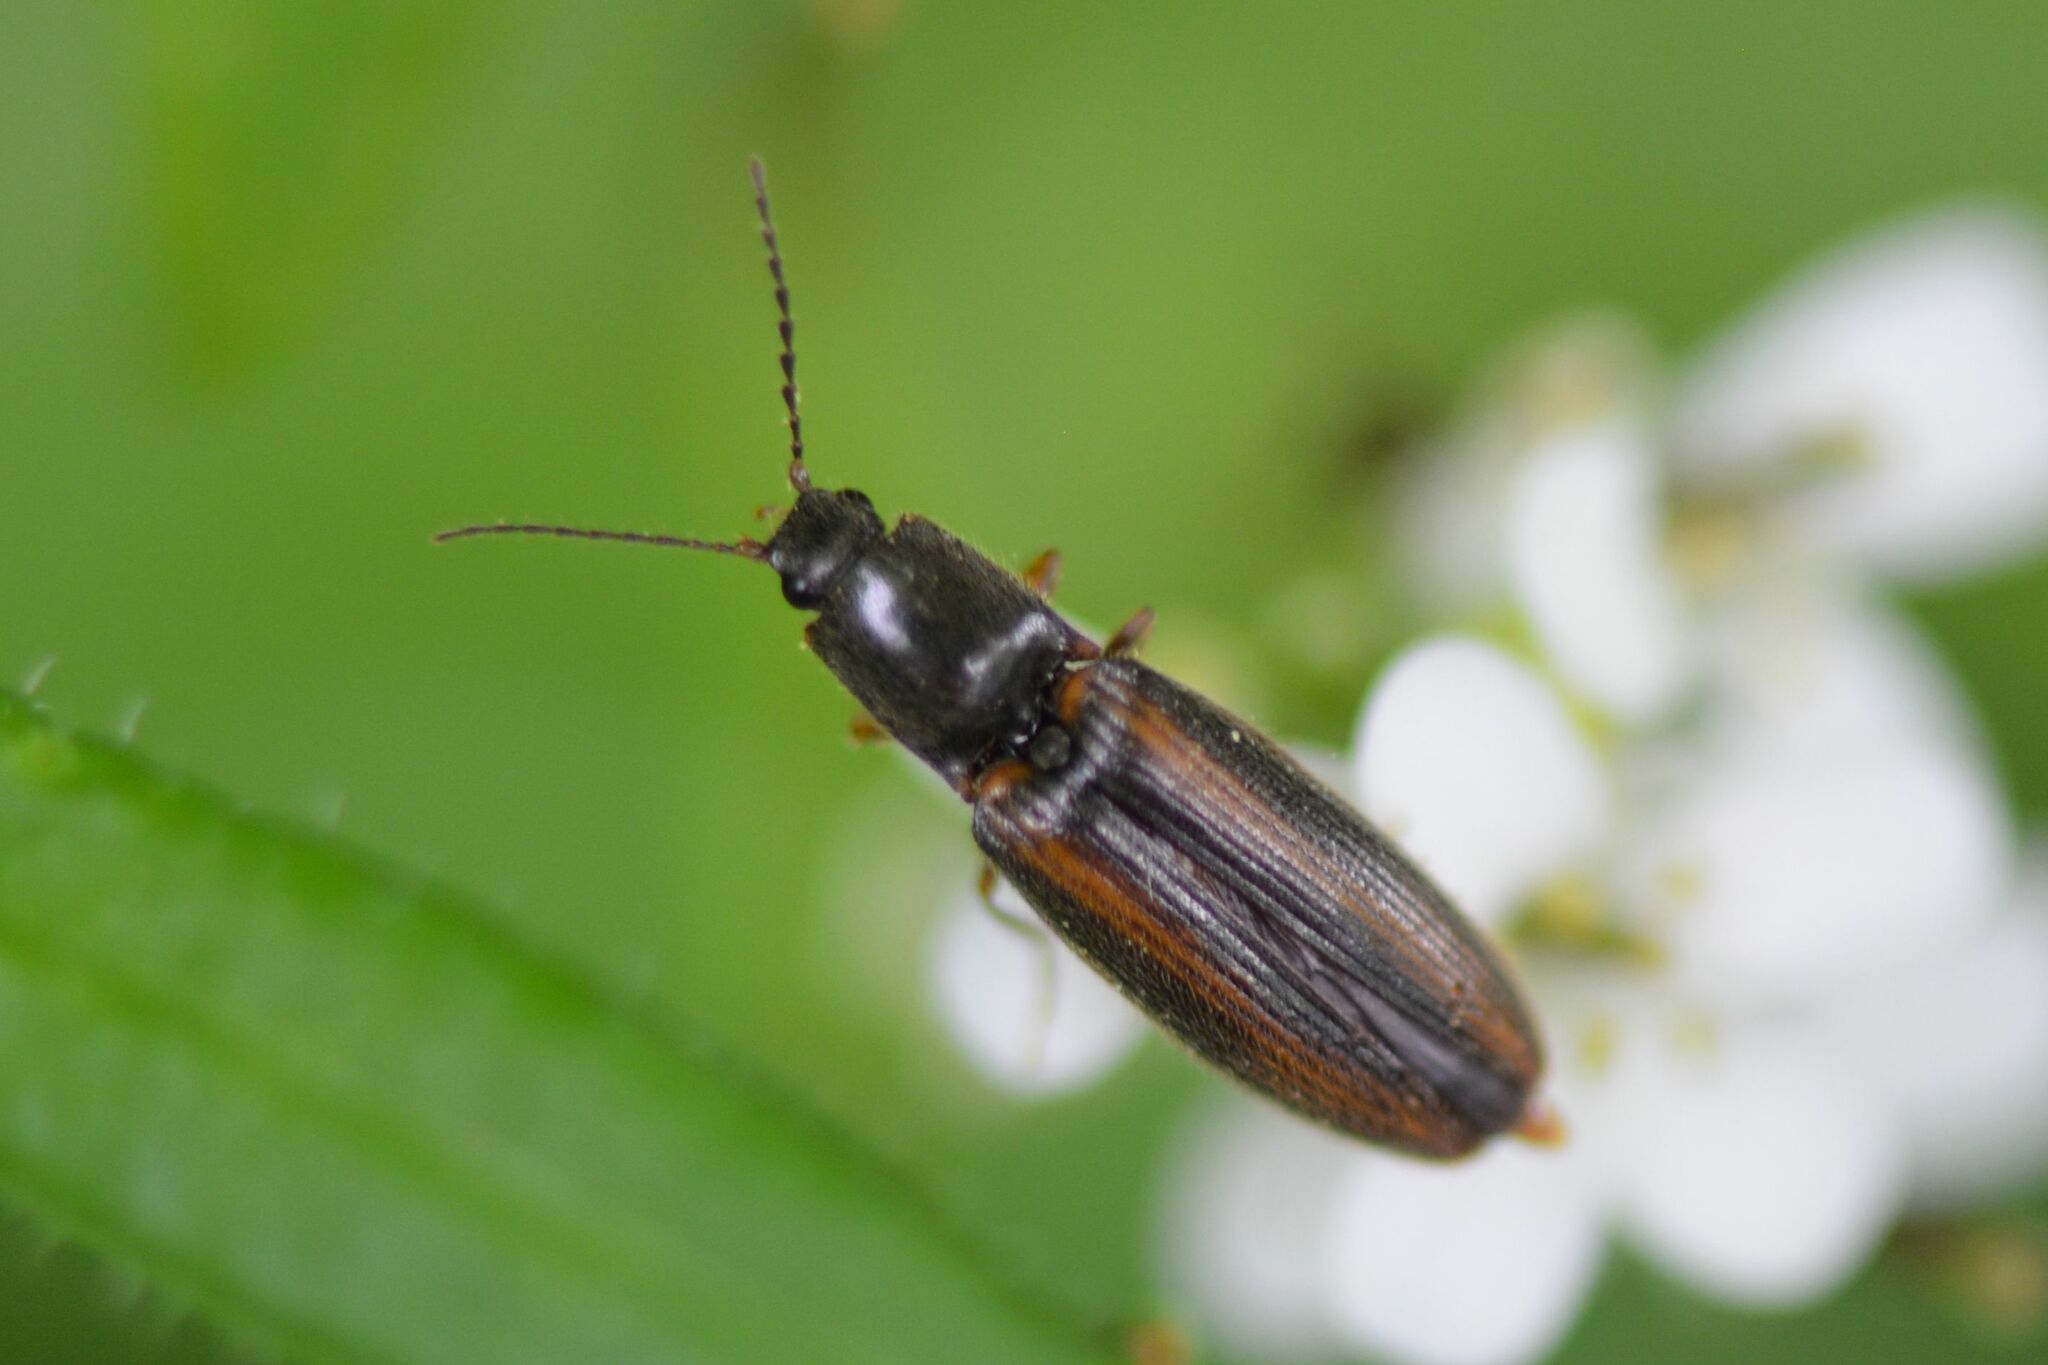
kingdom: Animalia
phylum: Arthropoda
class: Insecta
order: Coleoptera
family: Elateridae
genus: Athous
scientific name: Athous vittatus
